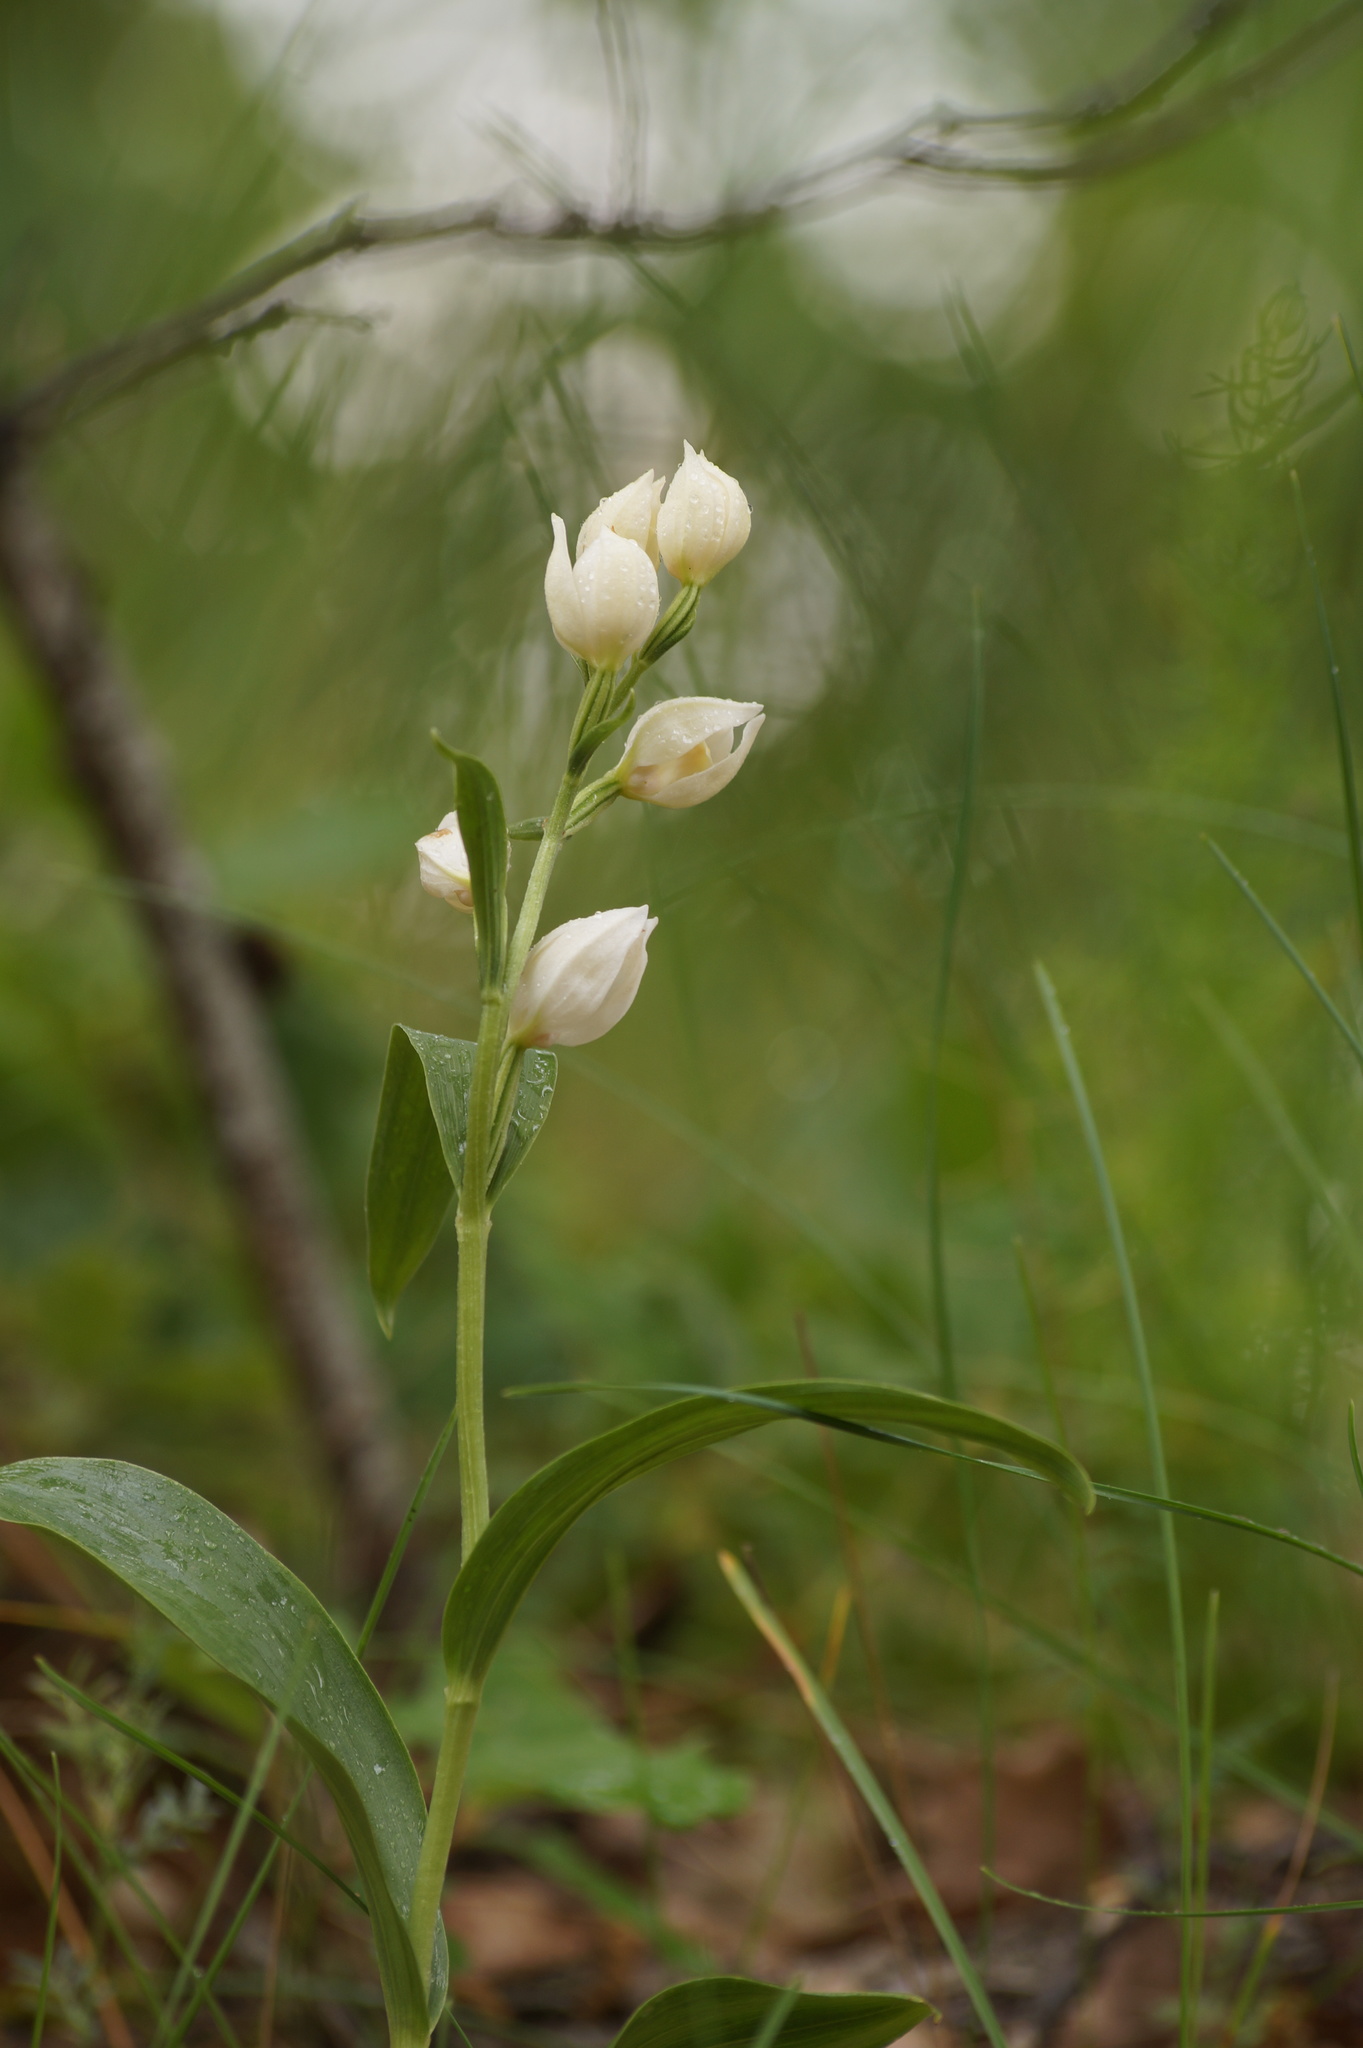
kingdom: Plantae
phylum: Tracheophyta
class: Liliopsida
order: Asparagales
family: Orchidaceae
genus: Cephalanthera
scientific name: Cephalanthera damasonium
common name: White helleborine
